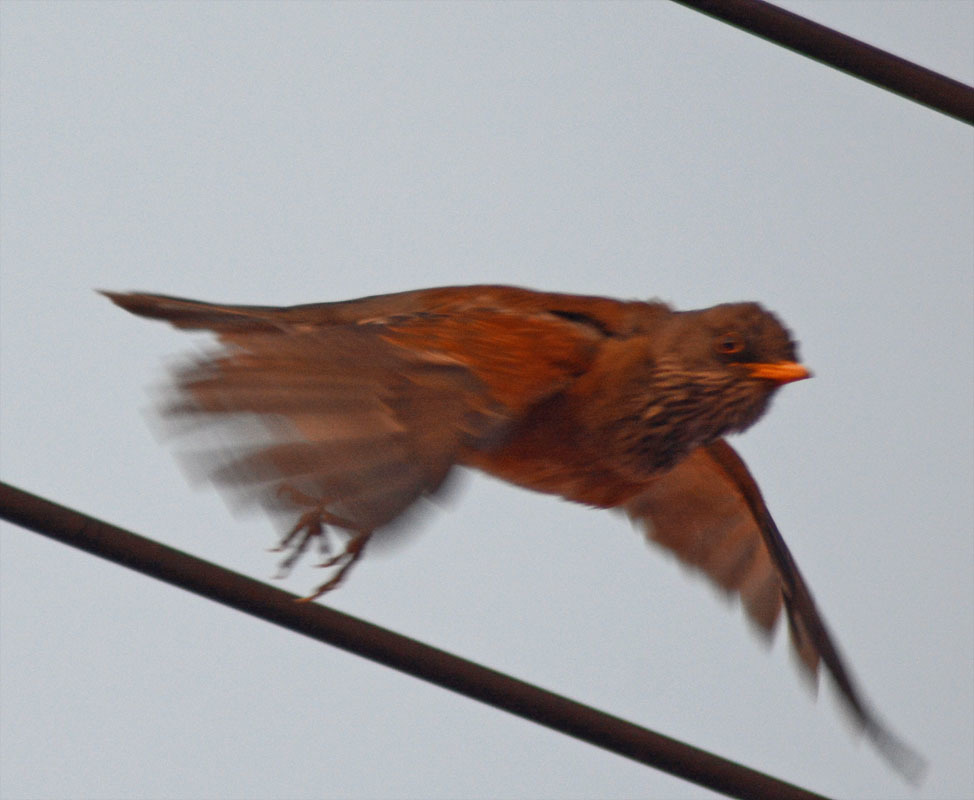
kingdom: Animalia
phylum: Chordata
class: Aves
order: Passeriformes
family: Turdidae
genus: Turdus
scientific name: Turdus rufopalliatus
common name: Rufous-backed robin
